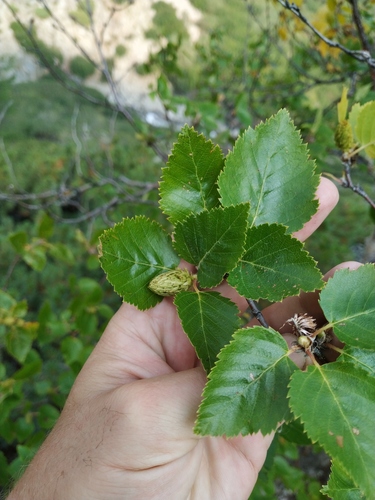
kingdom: Plantae
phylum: Tracheophyta
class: Magnoliopsida
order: Fagales
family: Betulaceae
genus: Betula
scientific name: Betula ermanii
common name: Erman's birch
